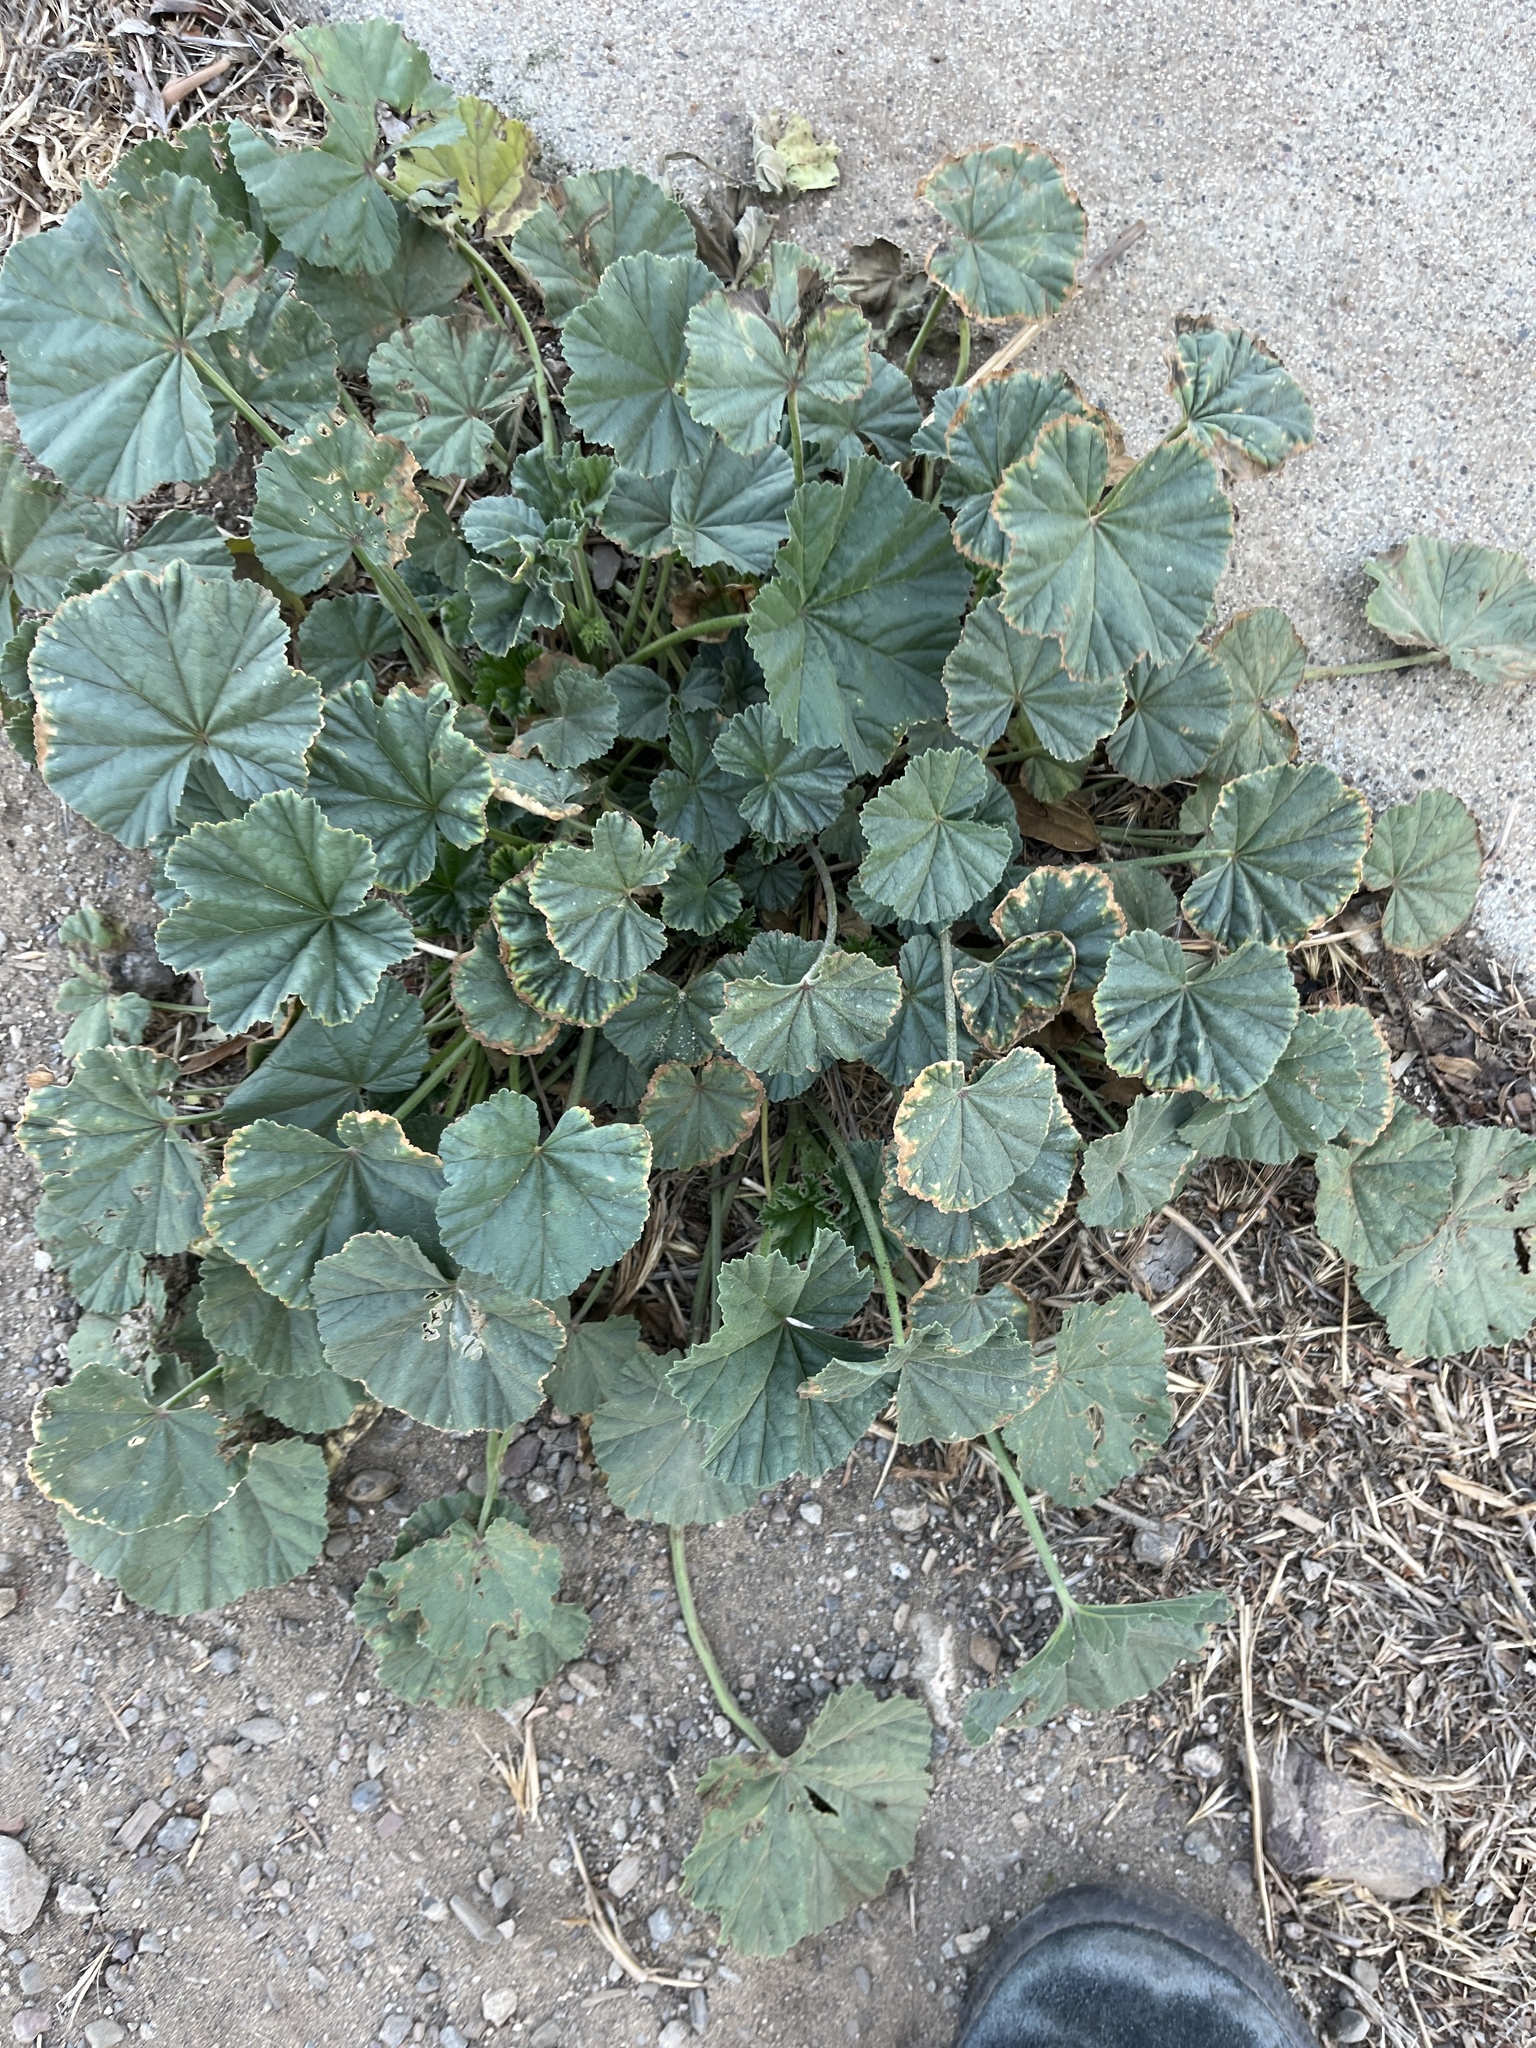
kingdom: Plantae
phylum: Tracheophyta
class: Magnoliopsida
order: Malvales
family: Malvaceae
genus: Malva
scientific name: Malva
